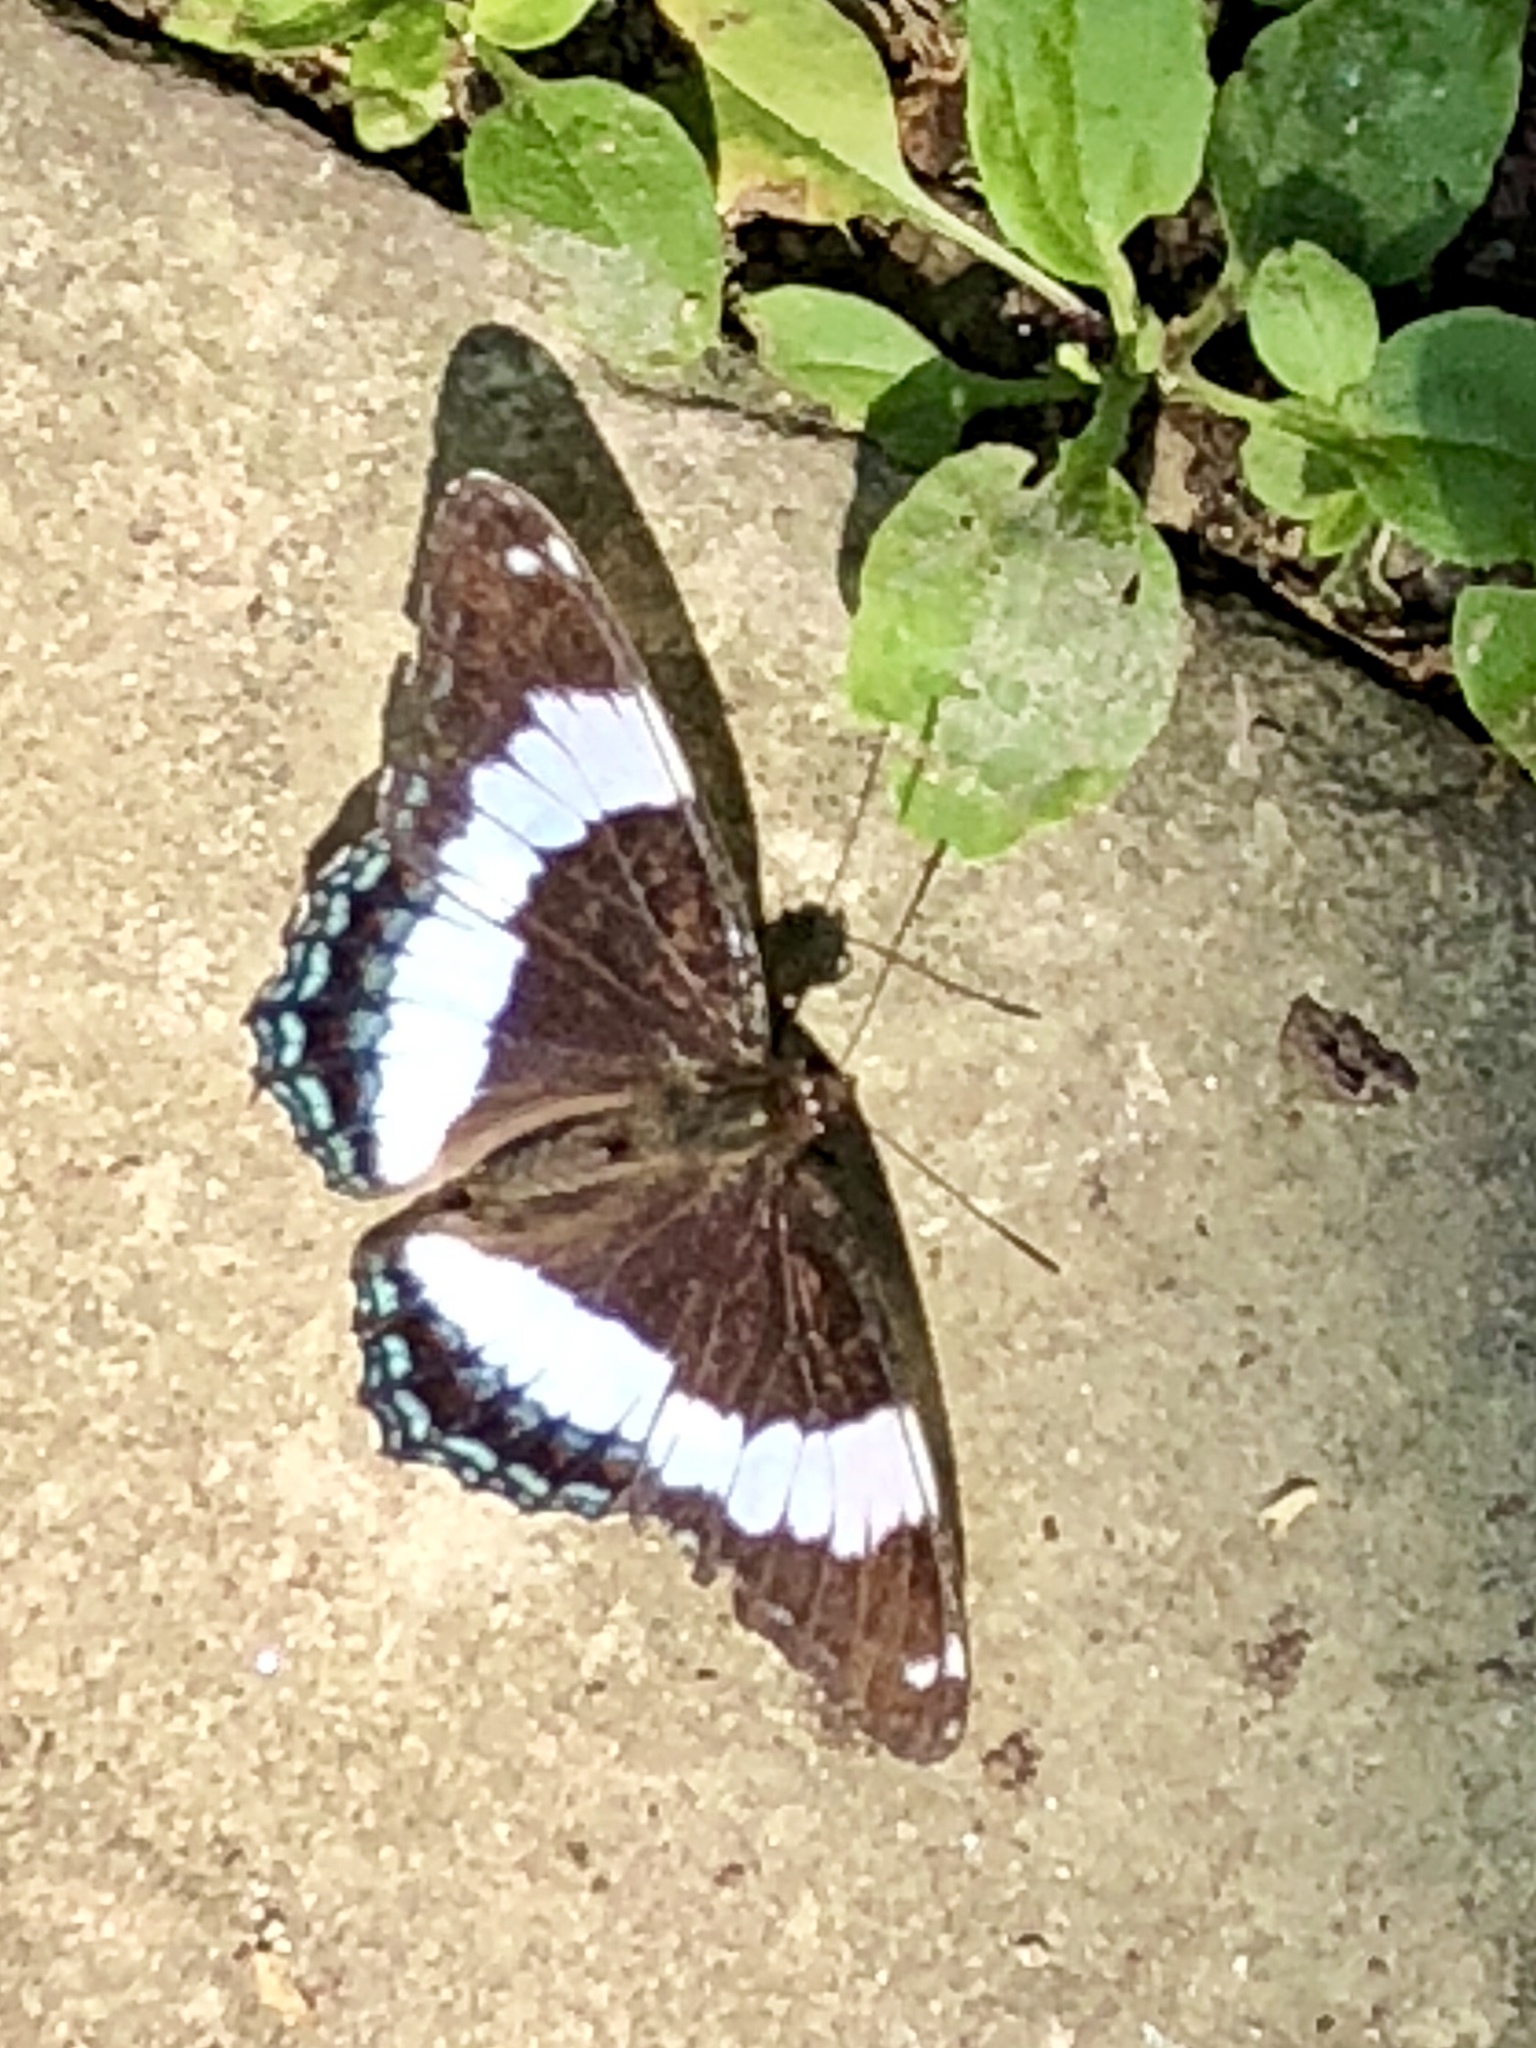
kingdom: Animalia
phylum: Arthropoda
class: Insecta
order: Lepidoptera
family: Nymphalidae
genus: Limenitis
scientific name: Limenitis arthemis
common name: Red-spotted admiral
